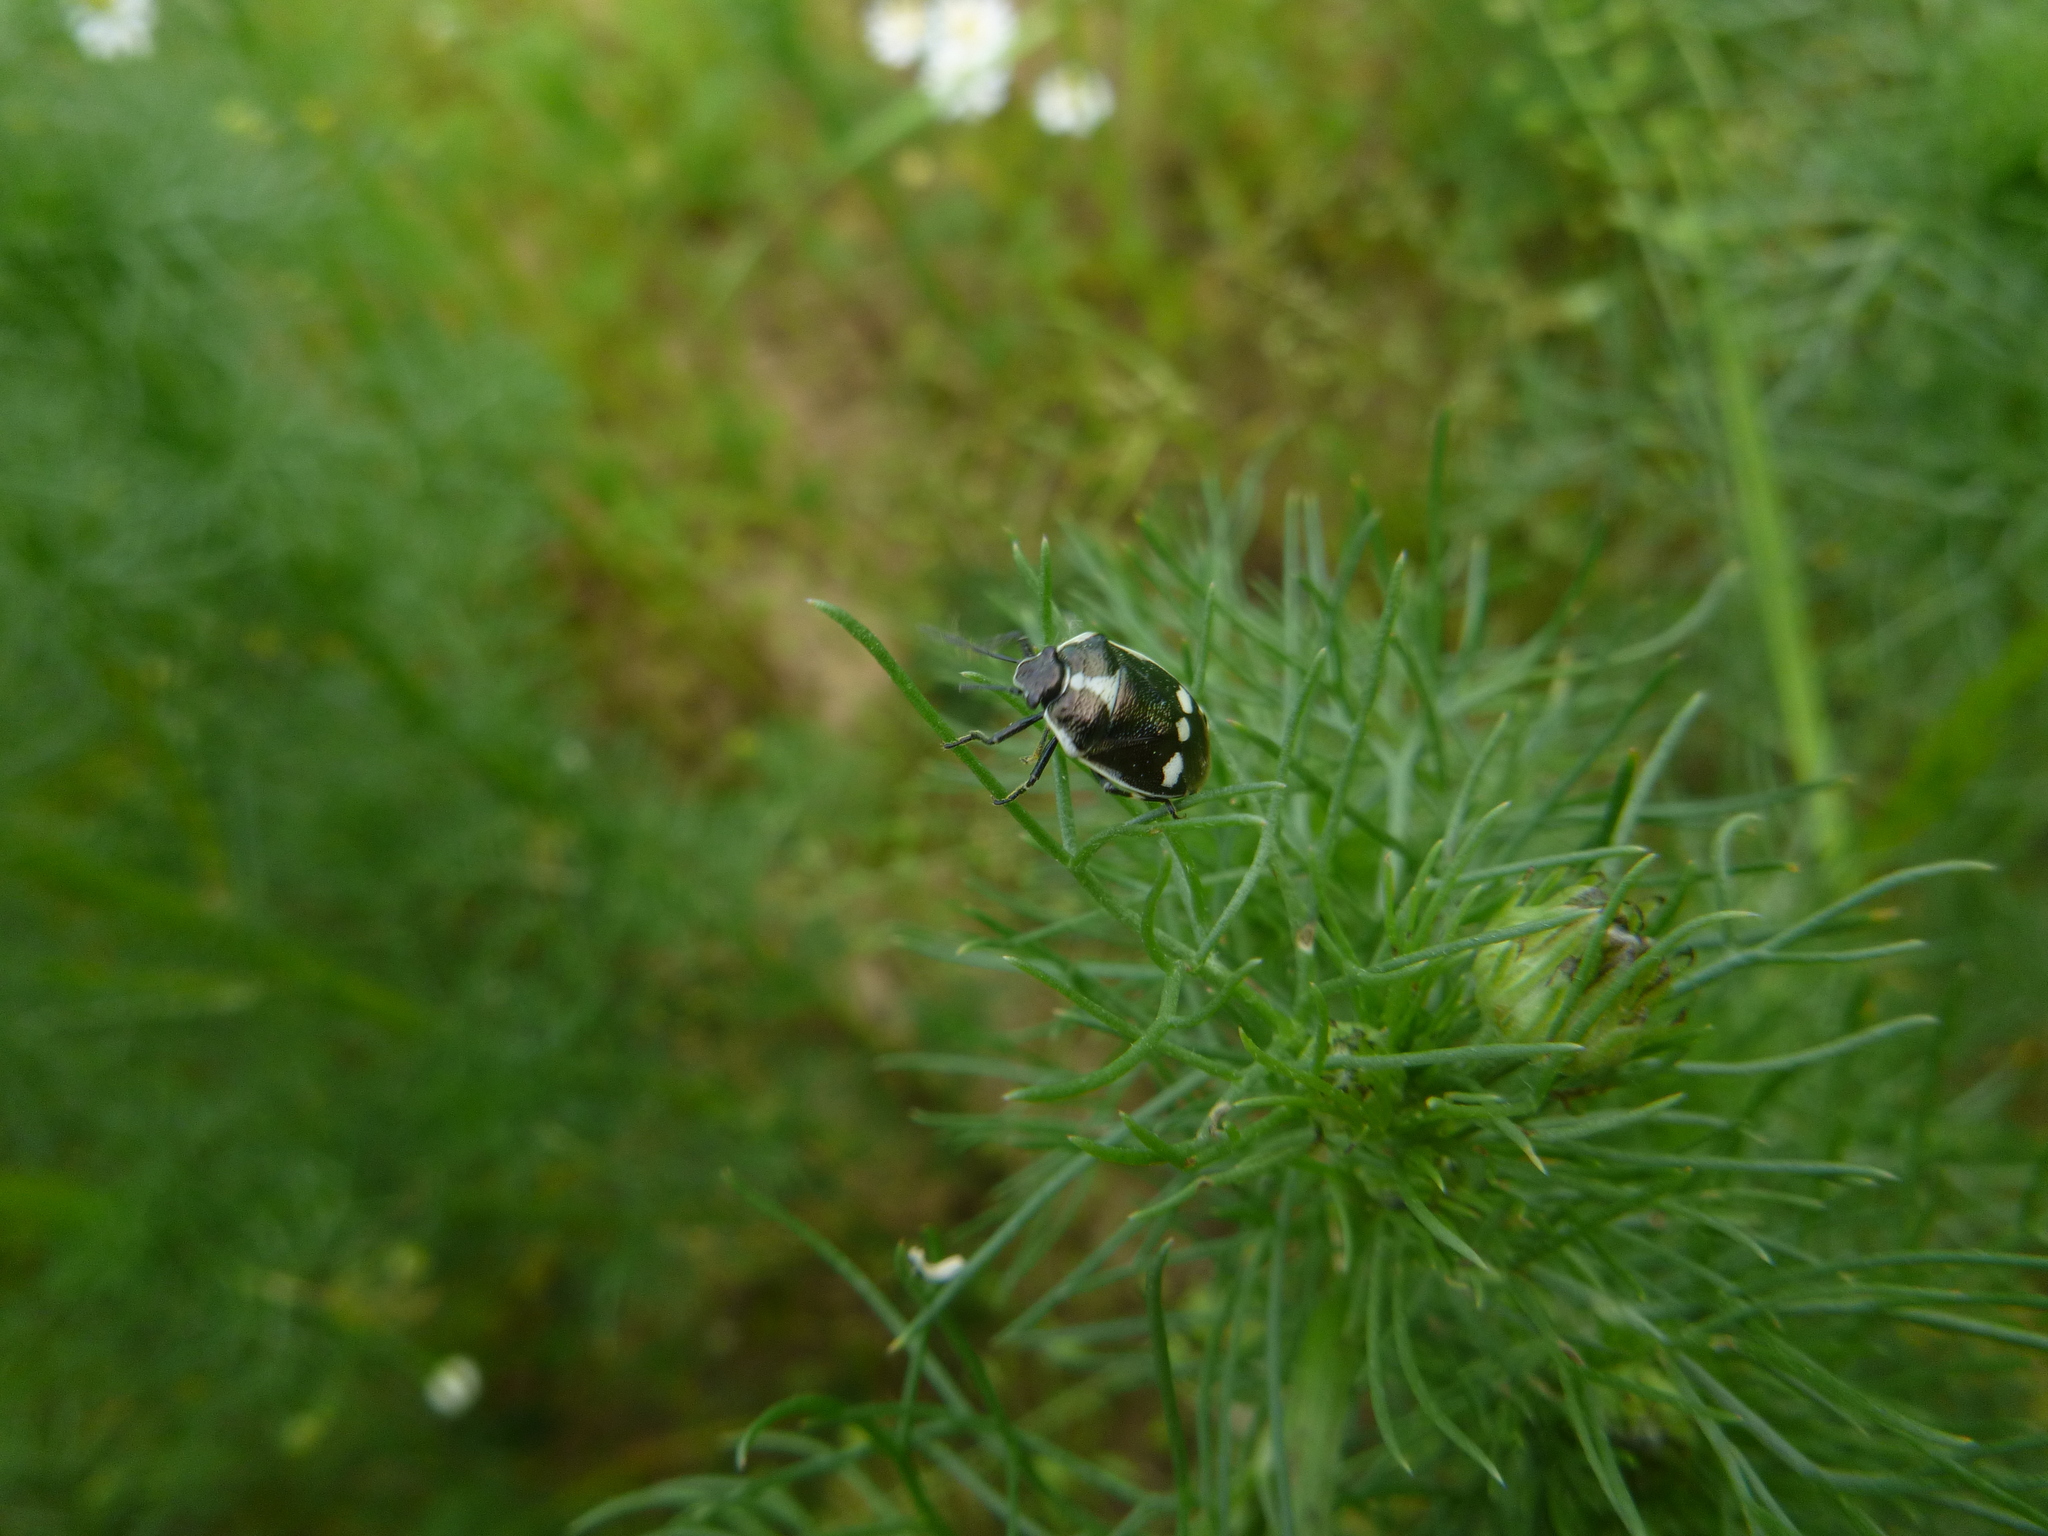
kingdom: Animalia
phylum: Arthropoda
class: Insecta
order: Hemiptera
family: Pentatomidae
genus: Eurydema
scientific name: Eurydema oleracea
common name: Cabbage bug
